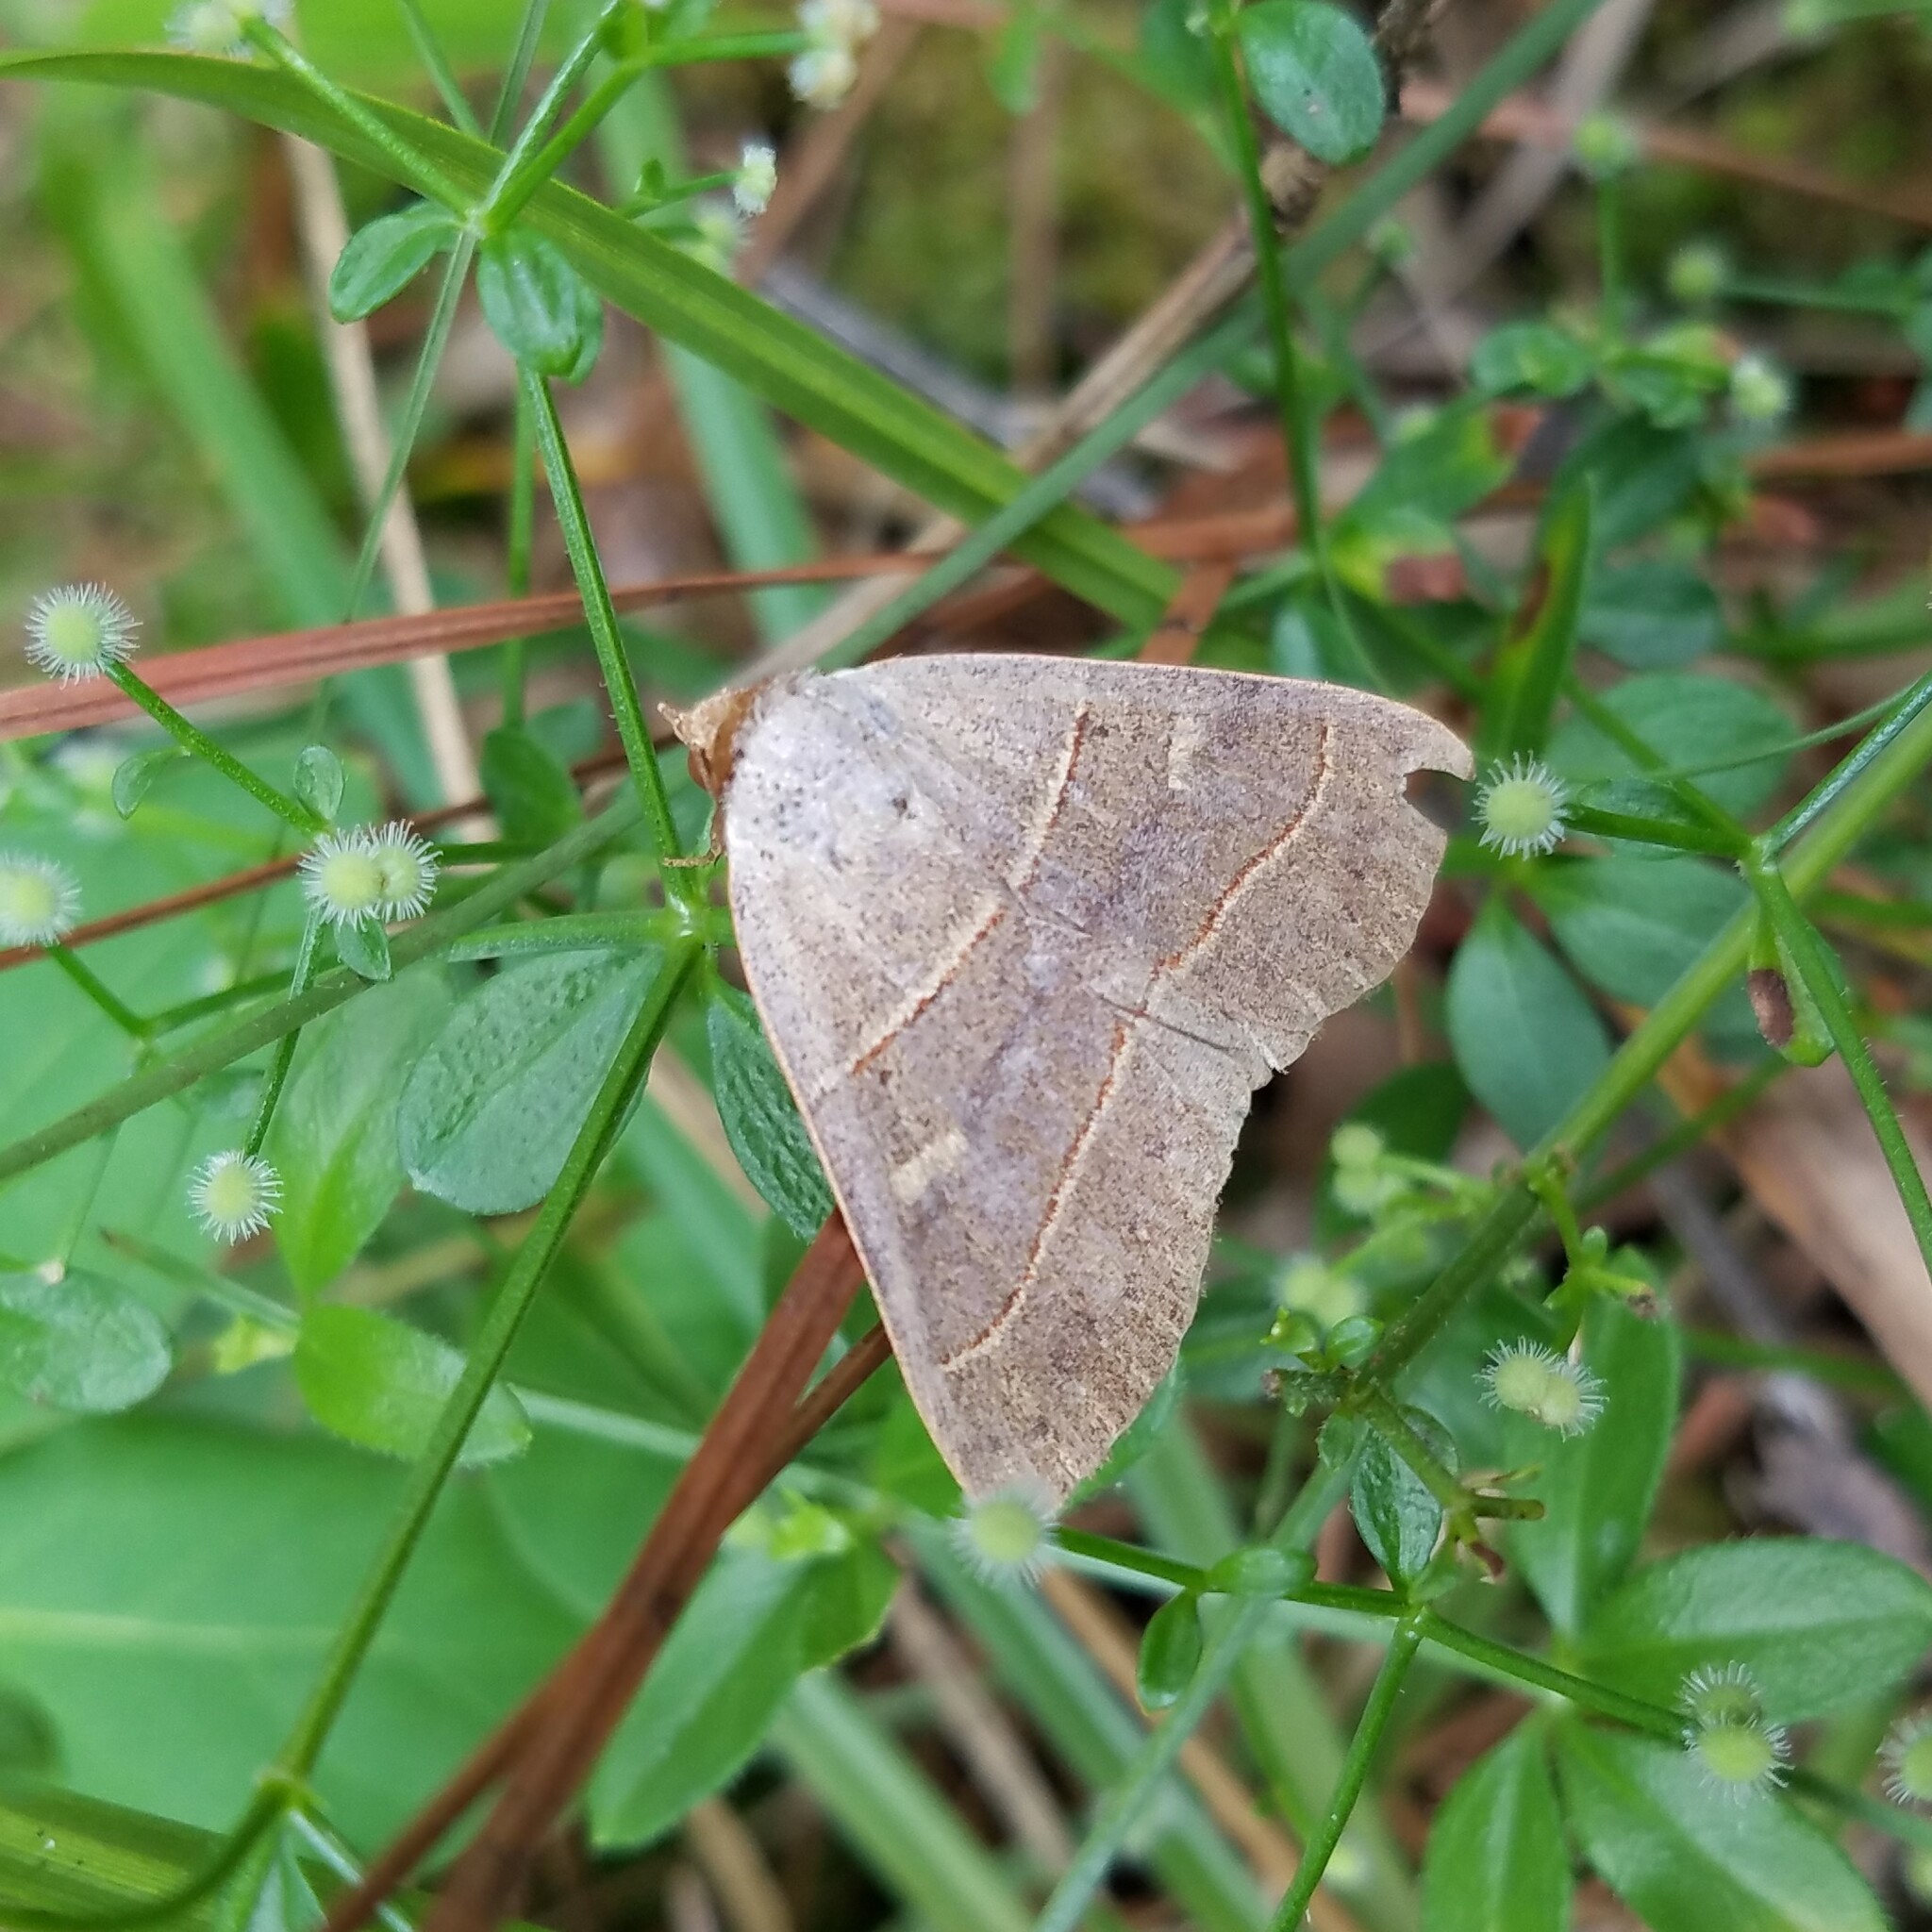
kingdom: Animalia
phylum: Arthropoda
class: Insecta
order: Lepidoptera
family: Erebidae
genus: Panopoda
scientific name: Panopoda rufimargo
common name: Red-lined panopoda moth
